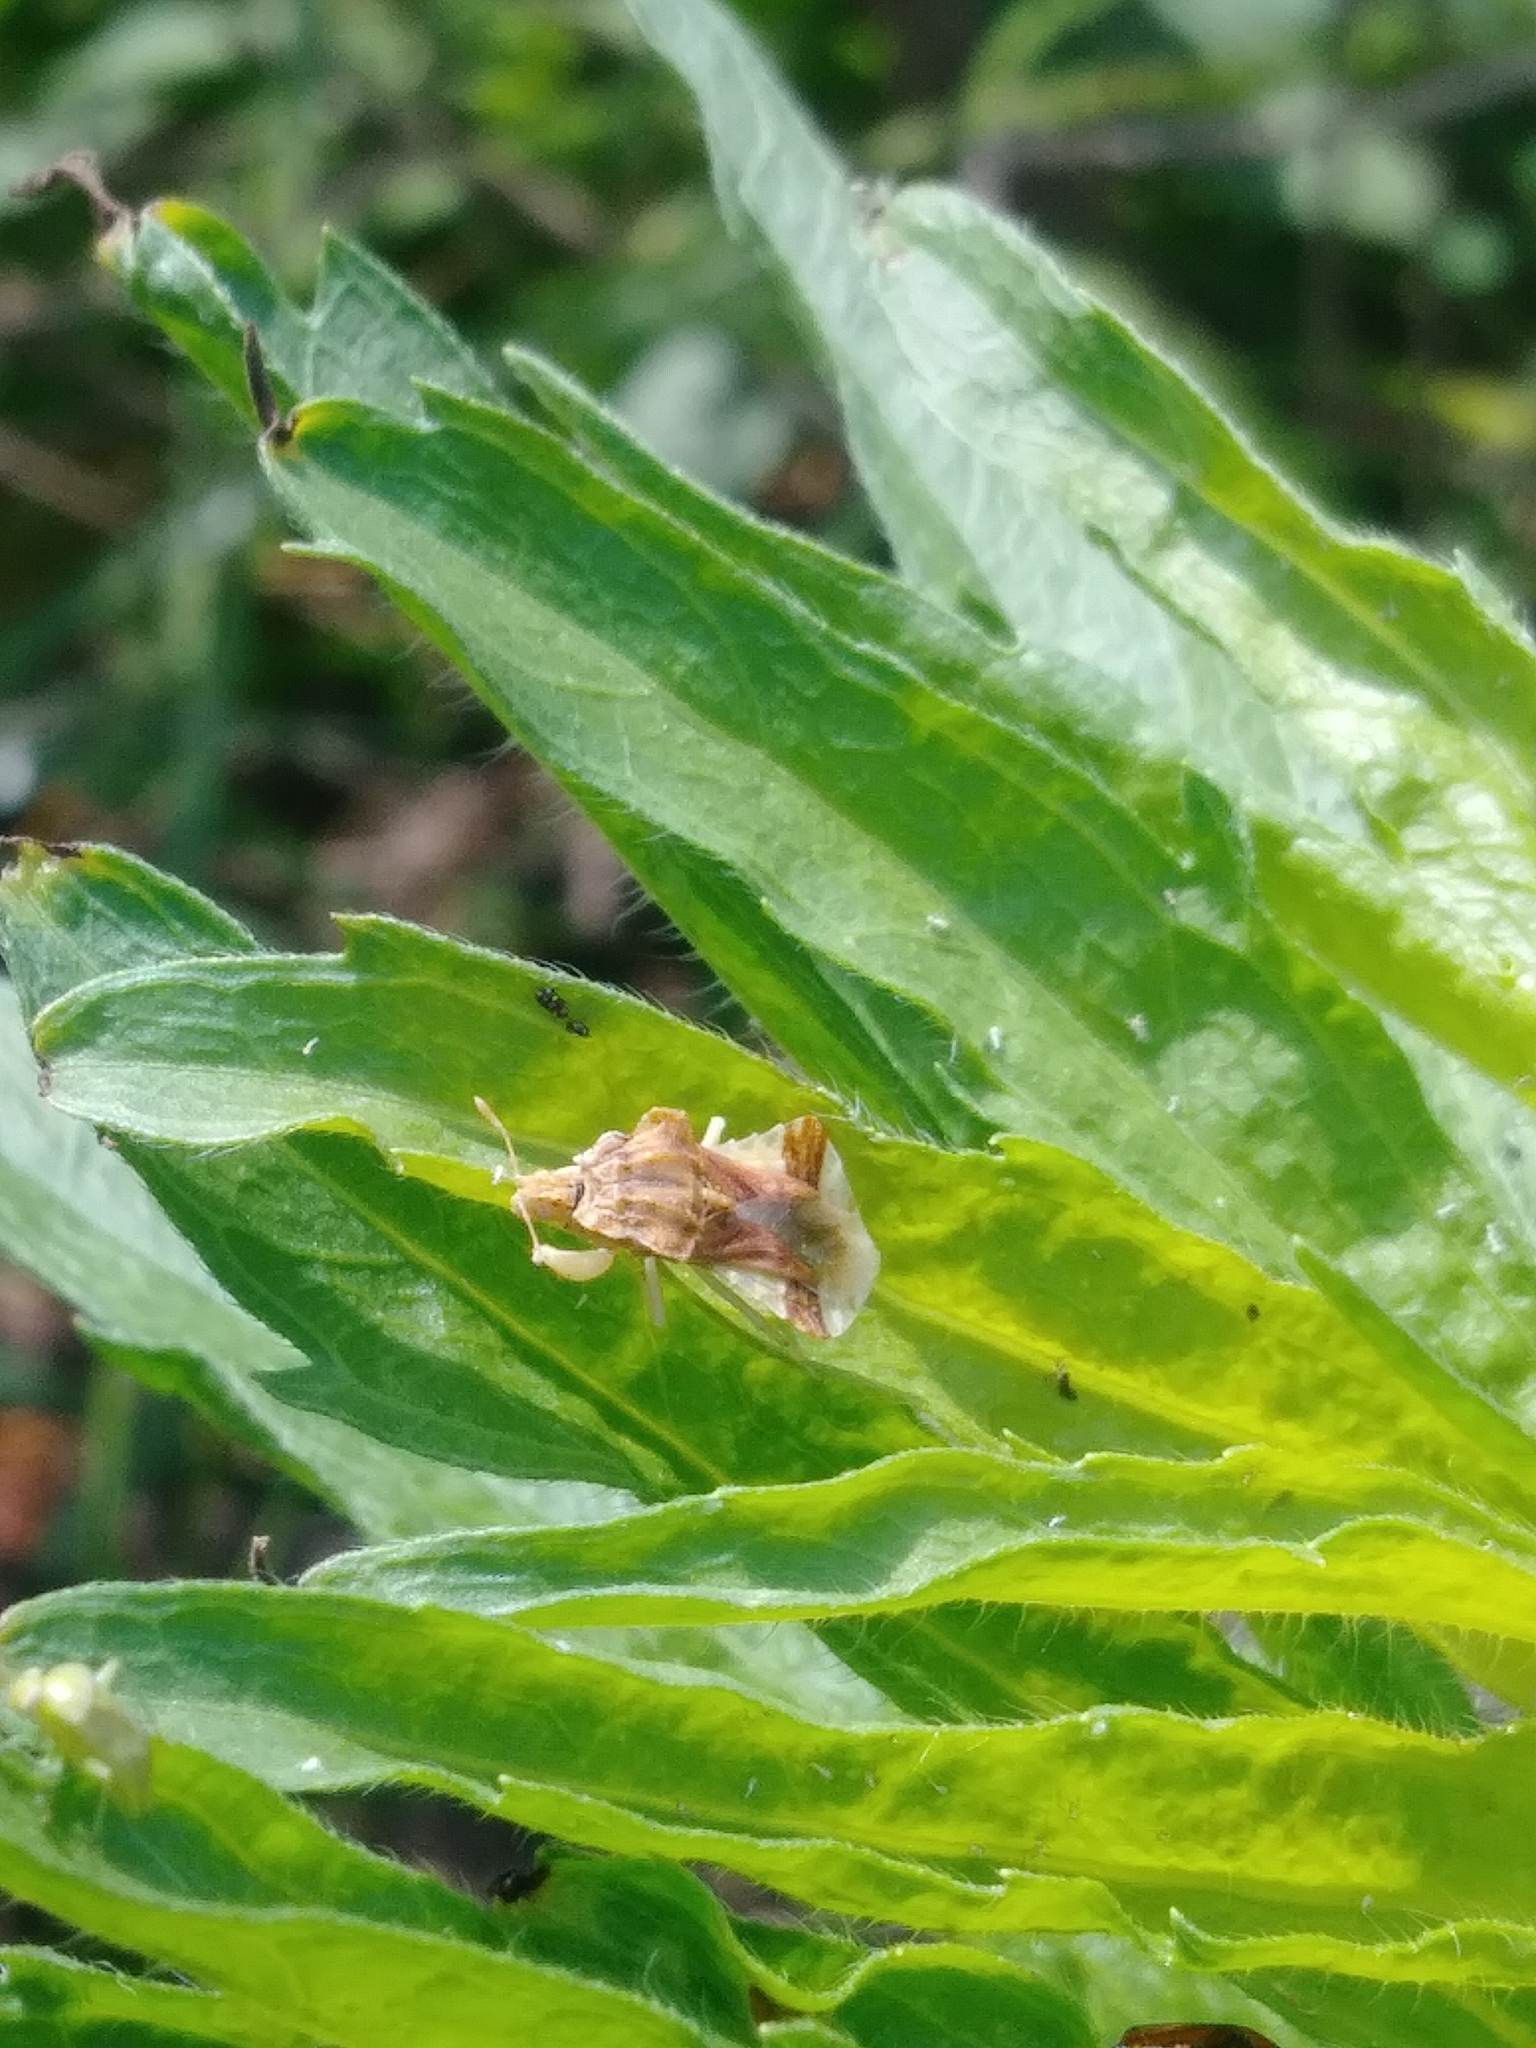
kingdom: Animalia
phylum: Arthropoda
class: Insecta
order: Hemiptera
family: Reduviidae
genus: Phymata
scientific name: Phymata fasciata
